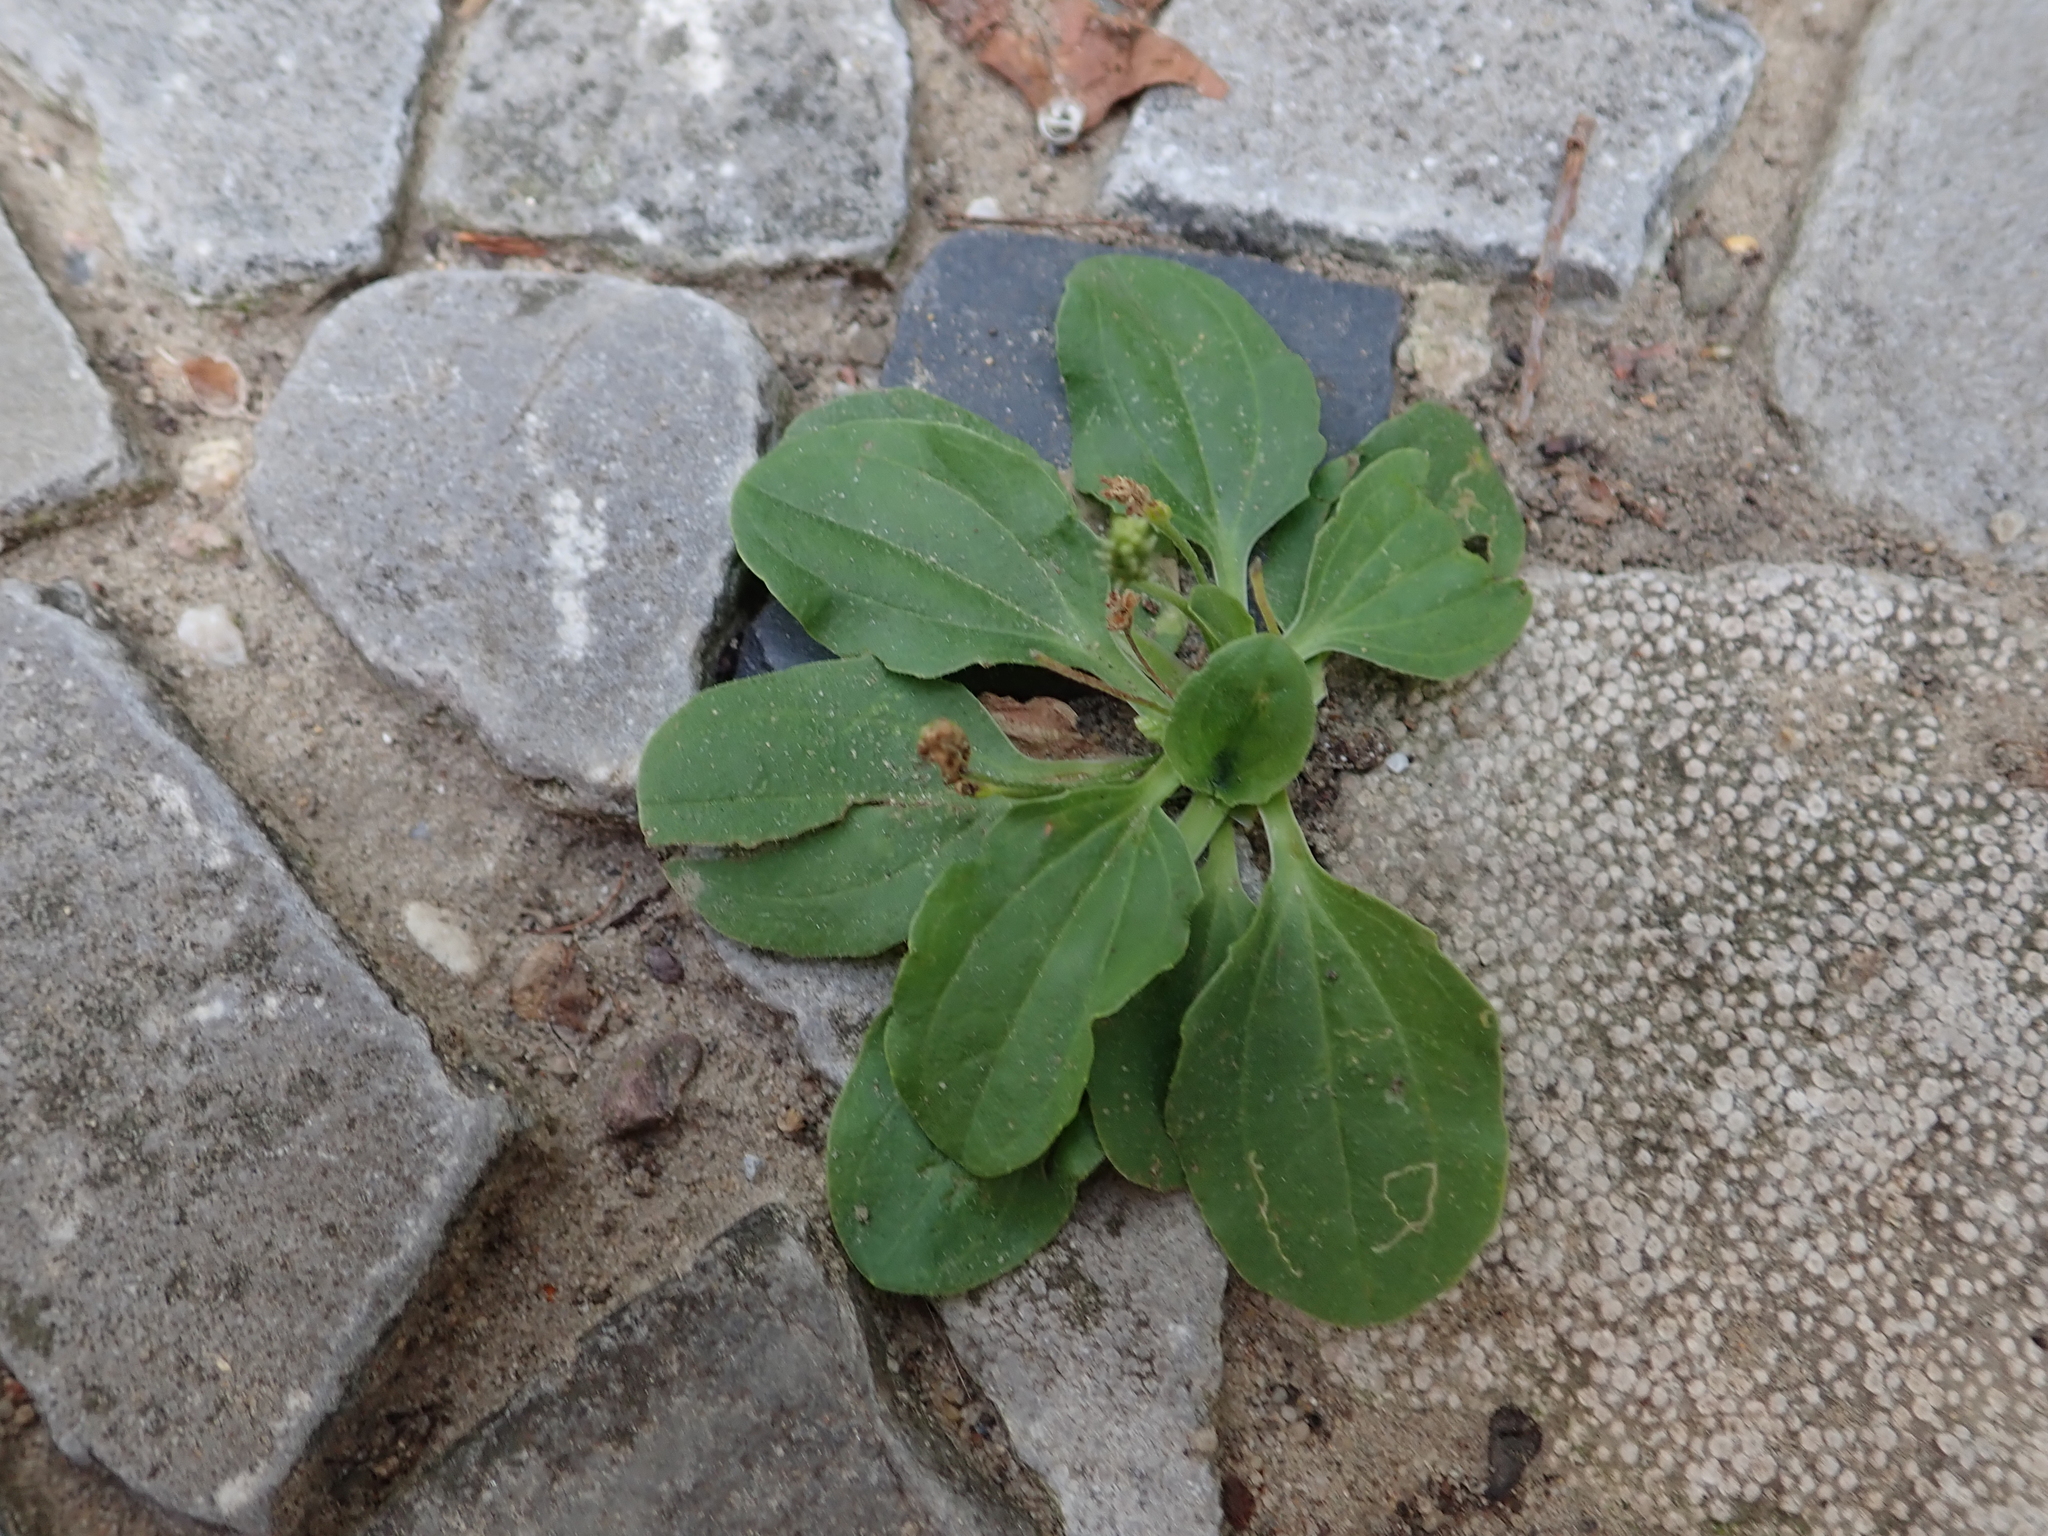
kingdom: Plantae
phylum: Tracheophyta
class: Magnoliopsida
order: Lamiales
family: Plantaginaceae
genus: Plantago
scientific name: Plantago major
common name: Common plantain
